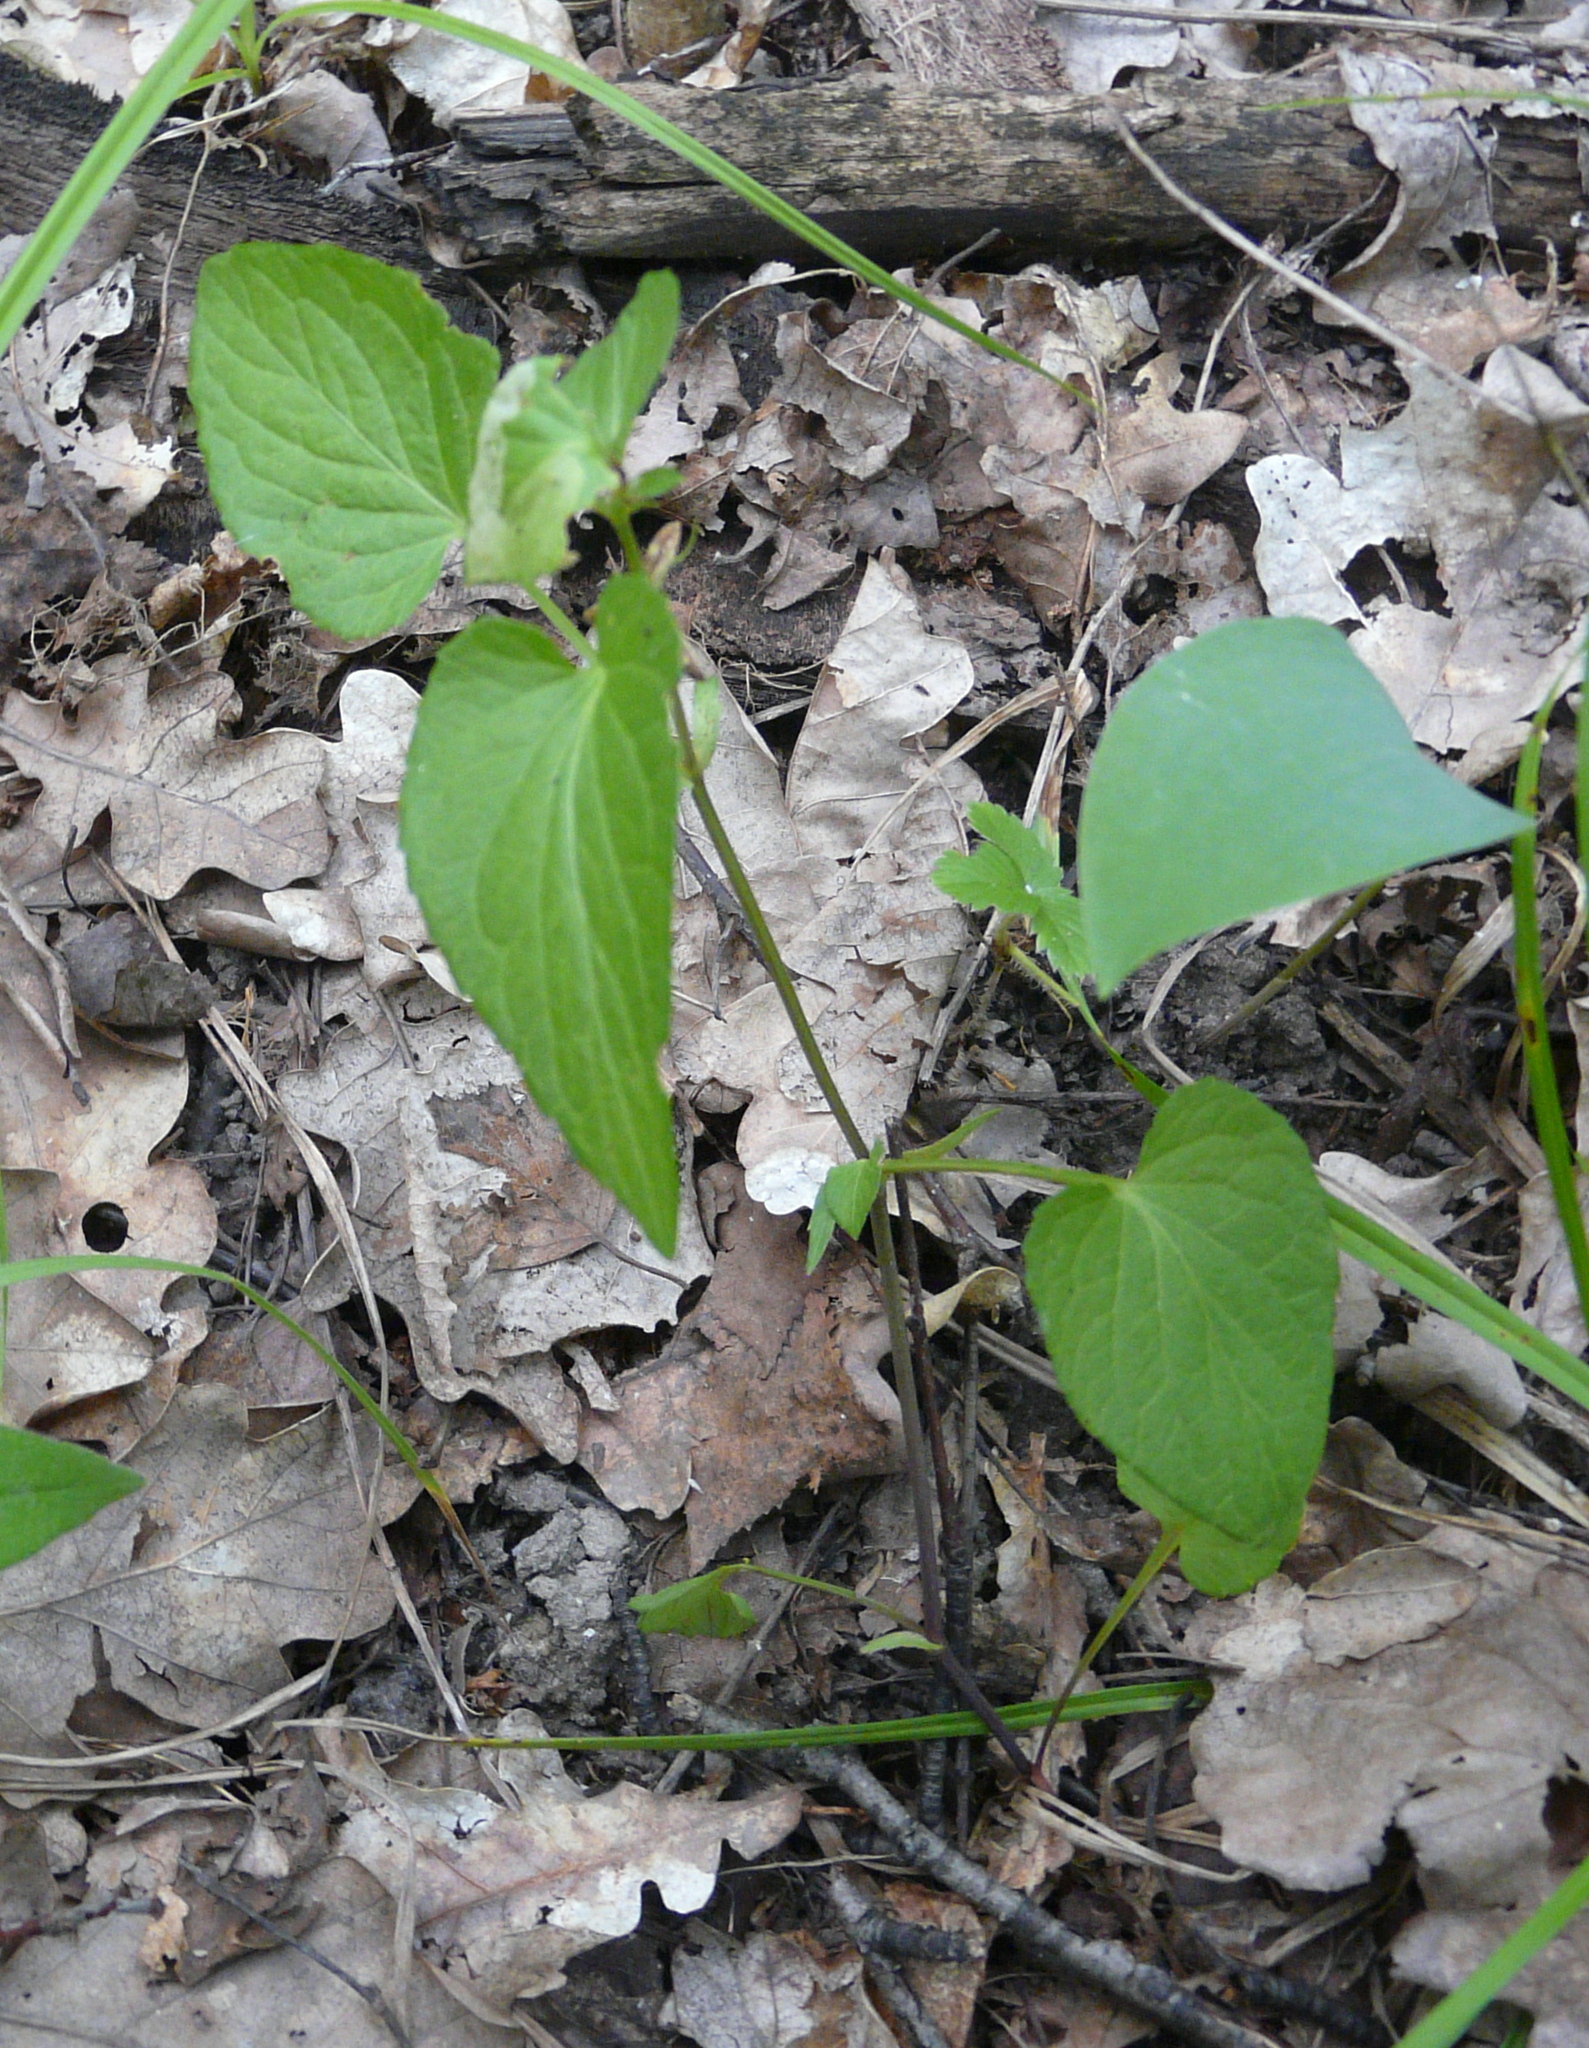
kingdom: Plantae
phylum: Tracheophyta
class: Magnoliopsida
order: Malpighiales
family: Violaceae
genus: Viola
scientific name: Viola
